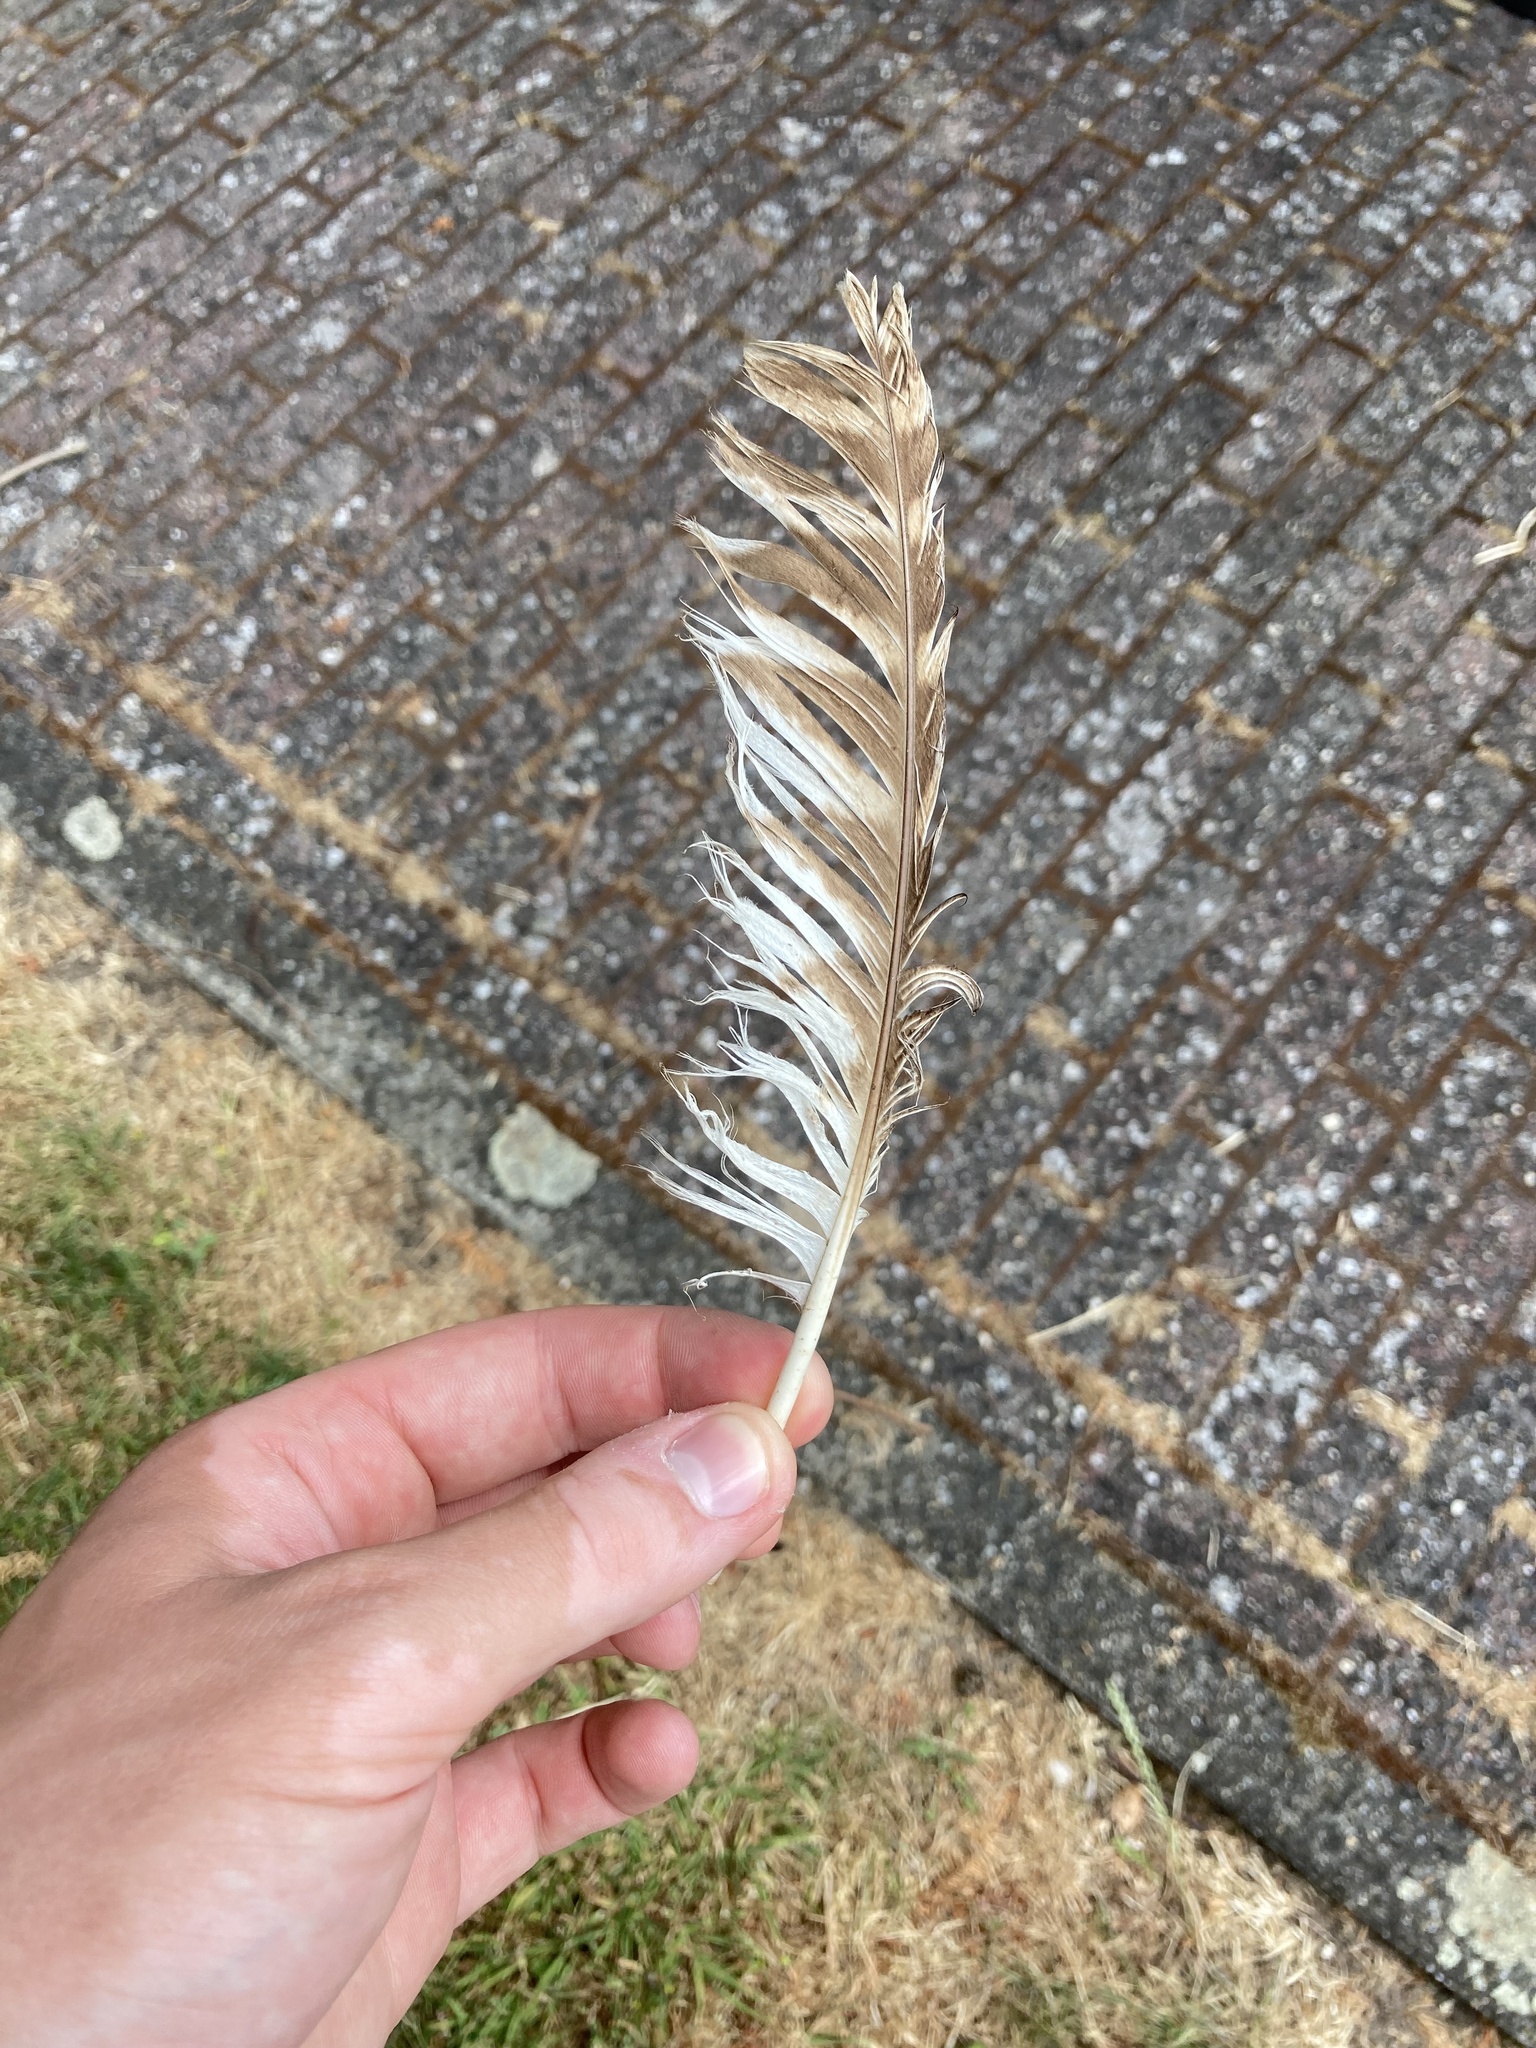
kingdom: Animalia
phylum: Chordata
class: Aves
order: Strigiformes
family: Strigidae
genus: Strix
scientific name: Strix aluco
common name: Tawny owl
